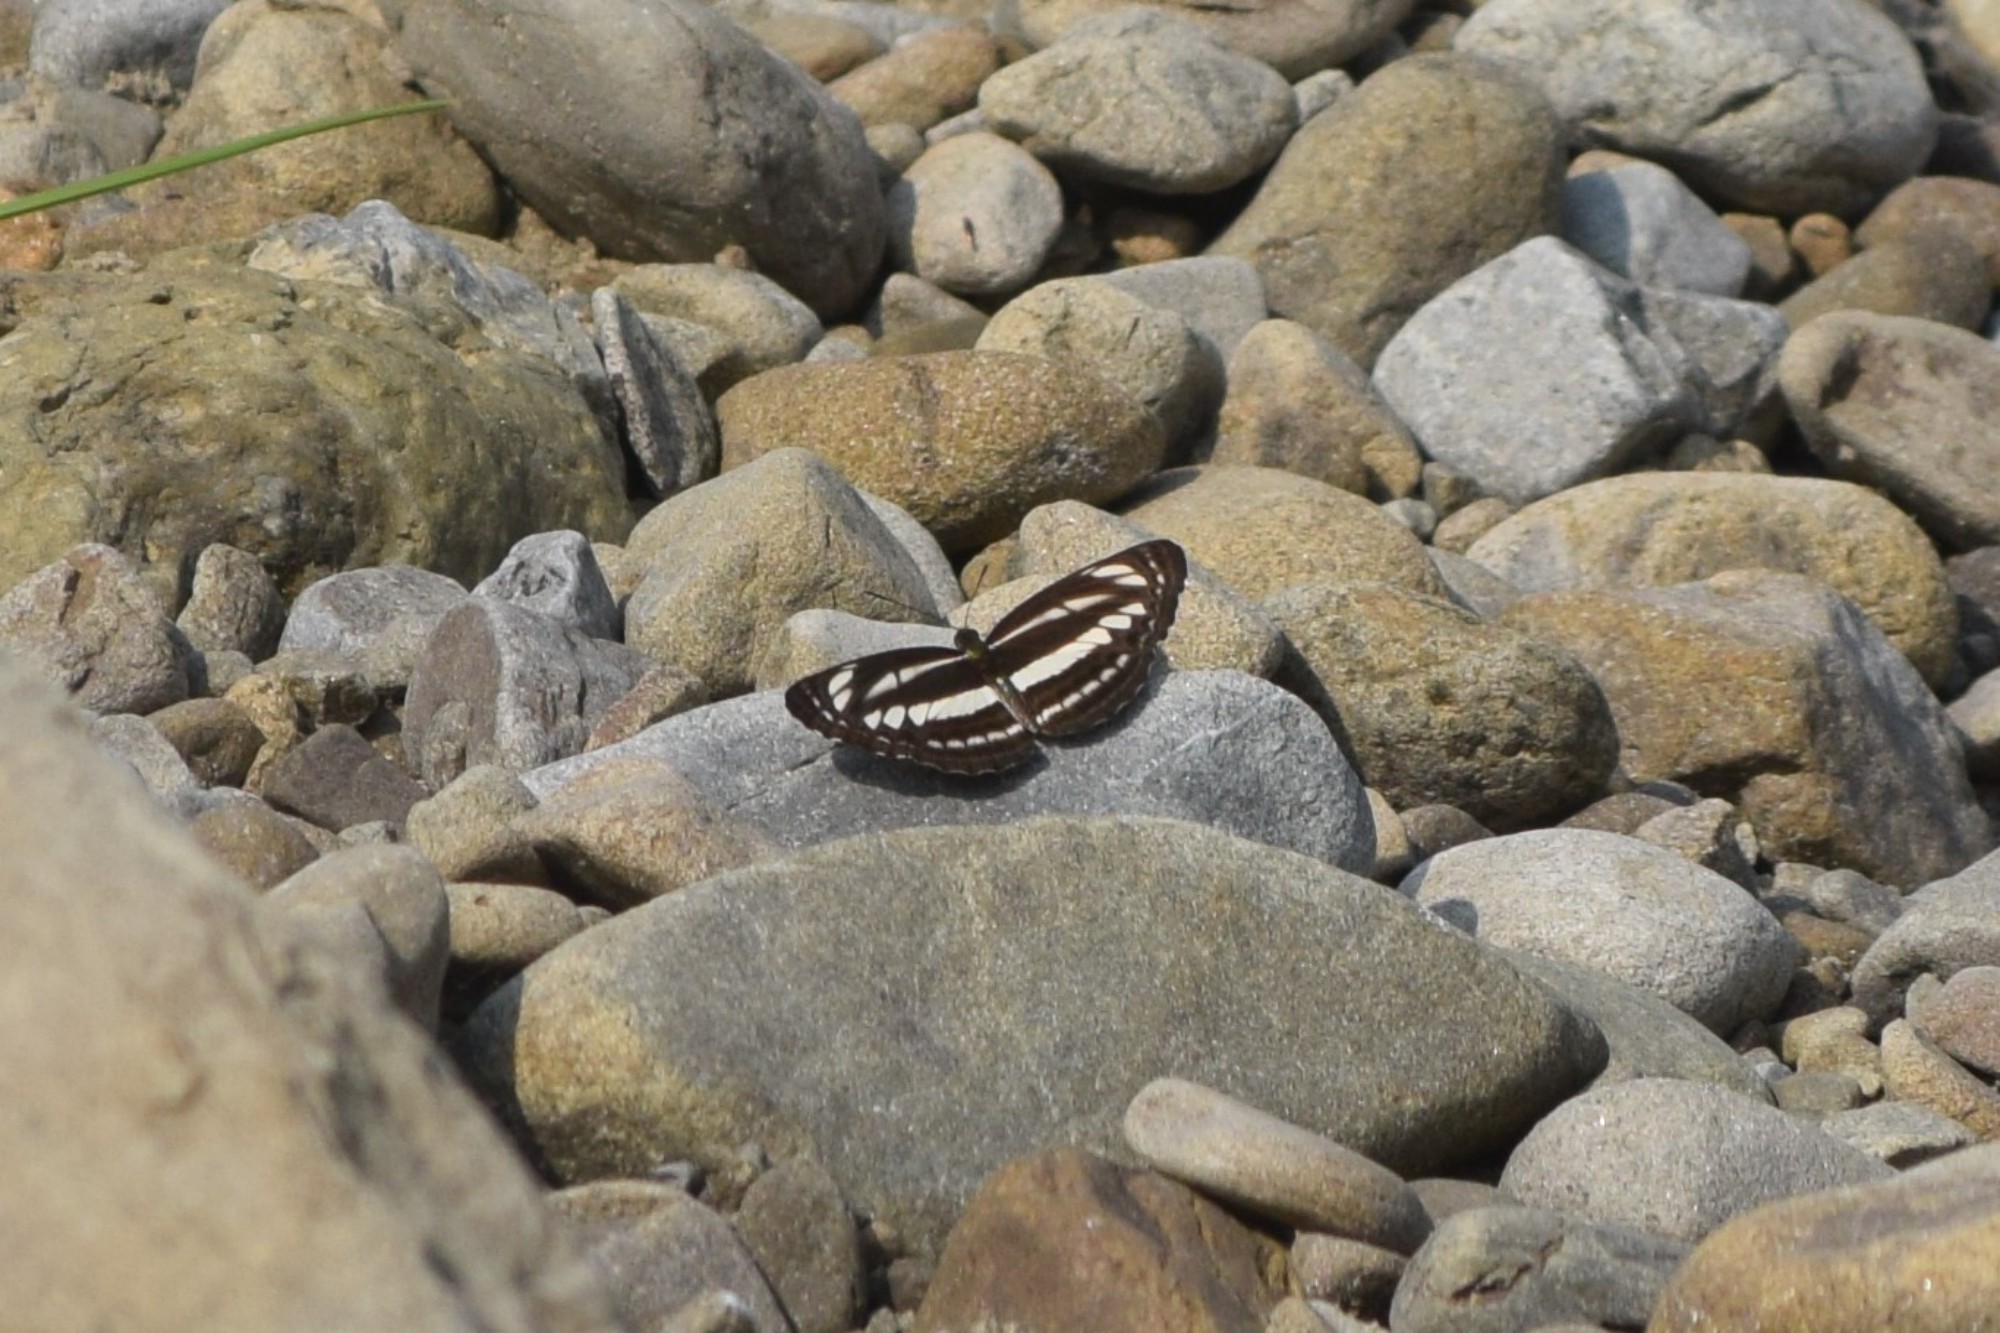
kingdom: Animalia
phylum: Arthropoda
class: Insecta
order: Lepidoptera
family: Nymphalidae
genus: Neptis
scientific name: Neptis clinia
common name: Southern sullied sailer
